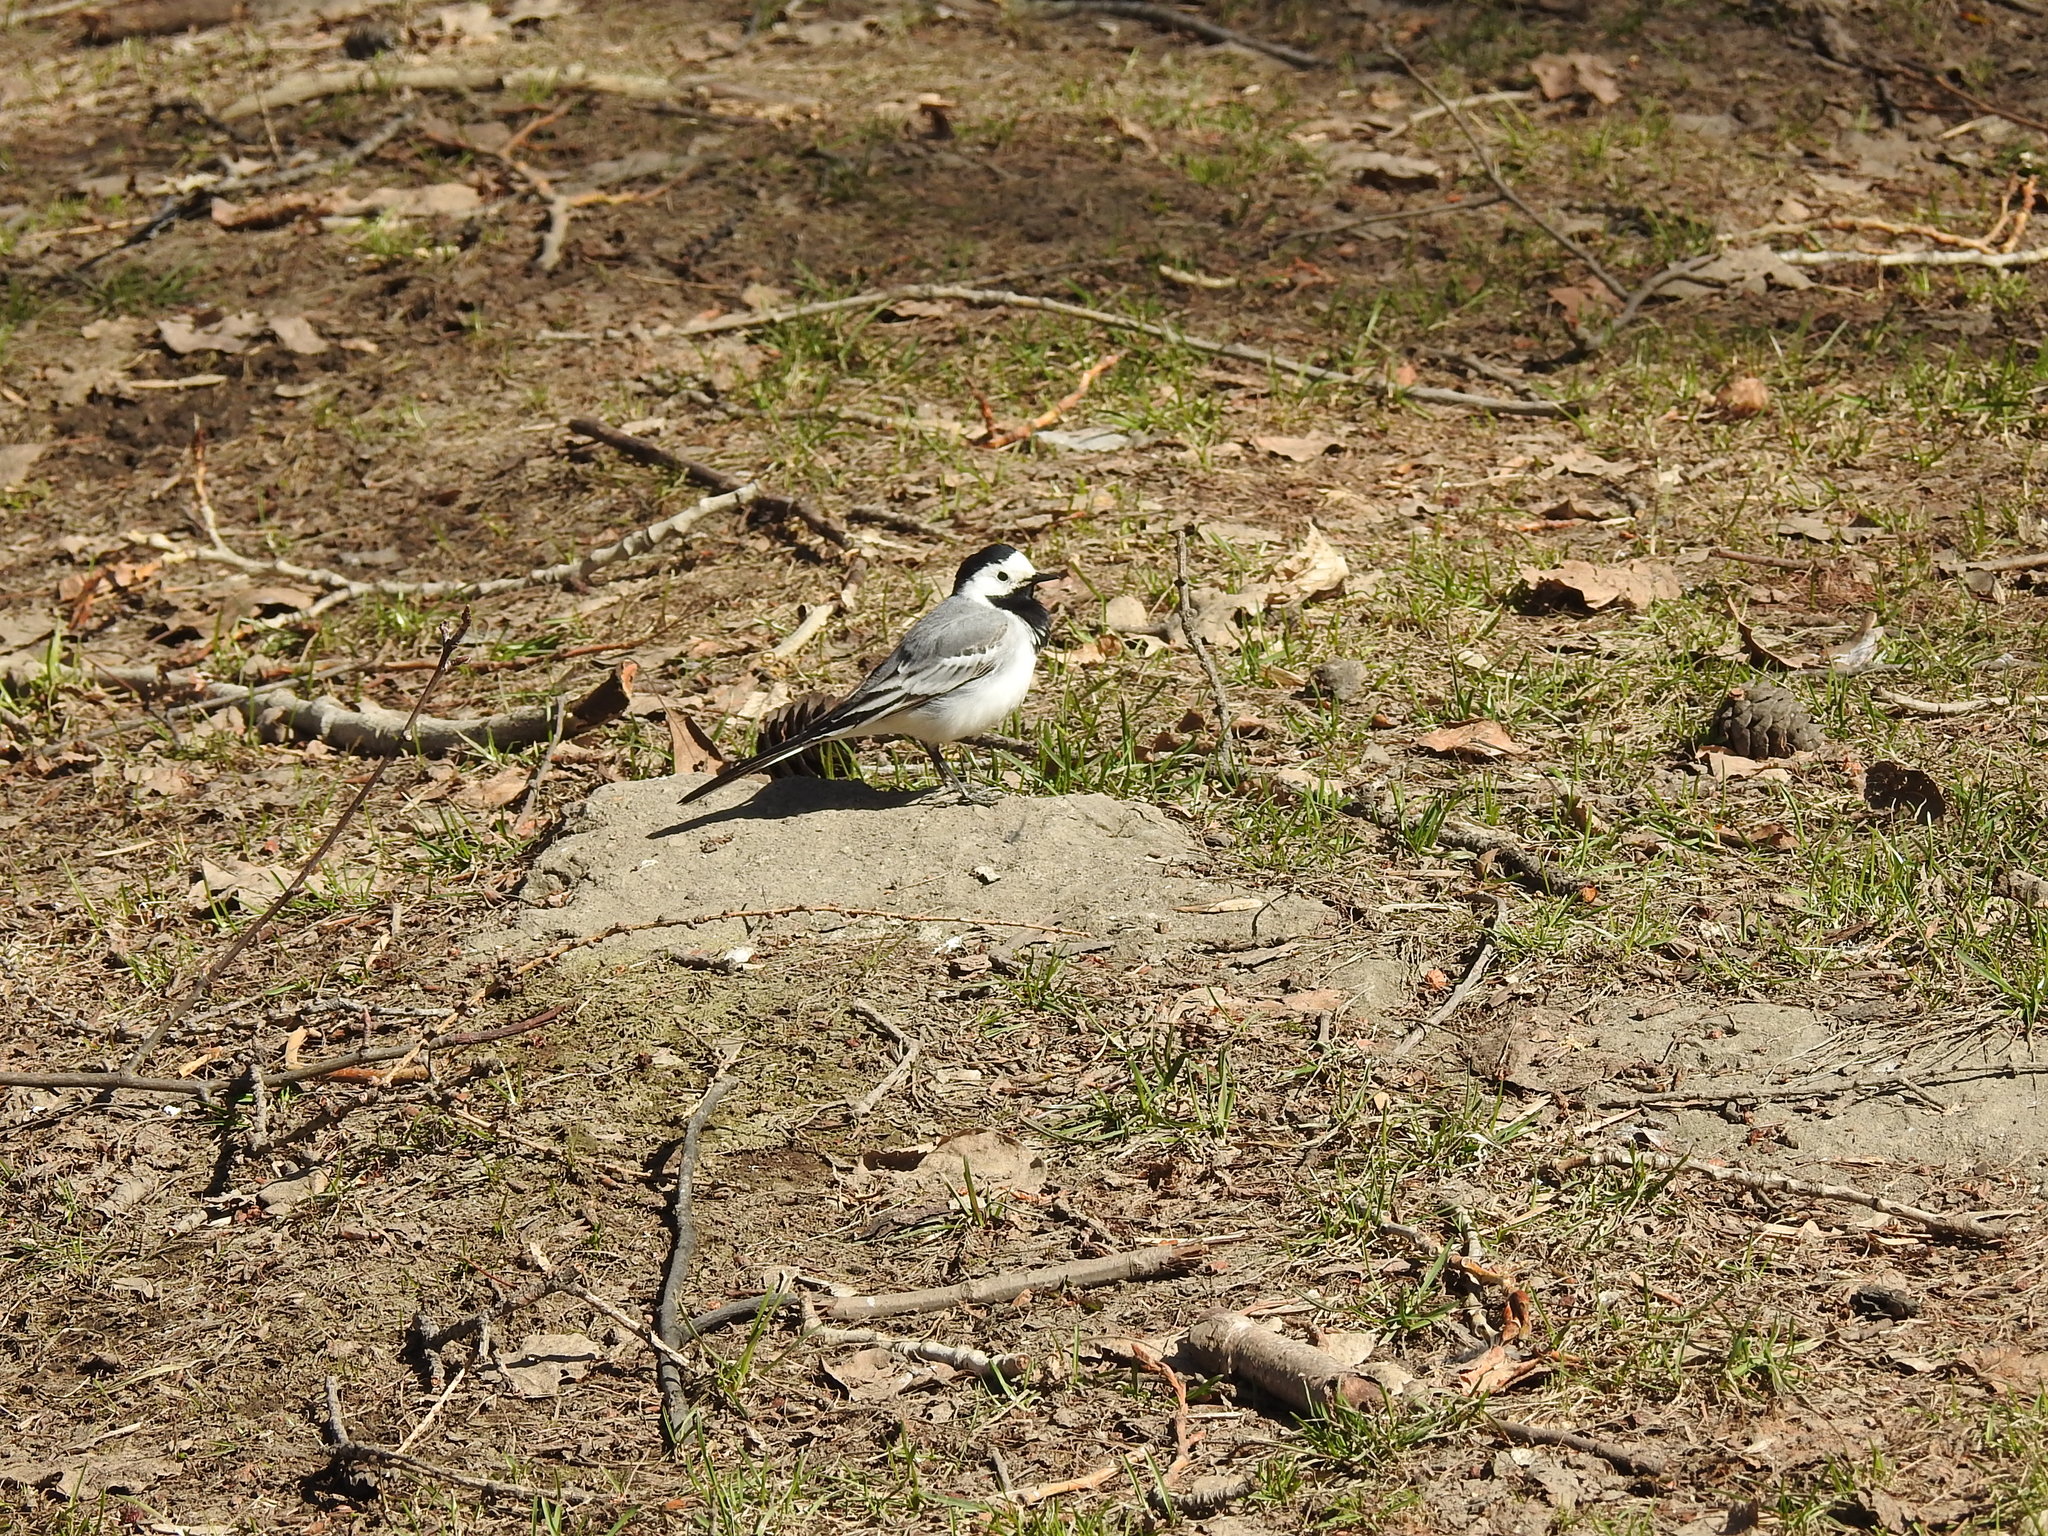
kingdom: Animalia
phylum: Chordata
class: Aves
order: Passeriformes
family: Motacillidae
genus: Motacilla
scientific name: Motacilla alba
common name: White wagtail
